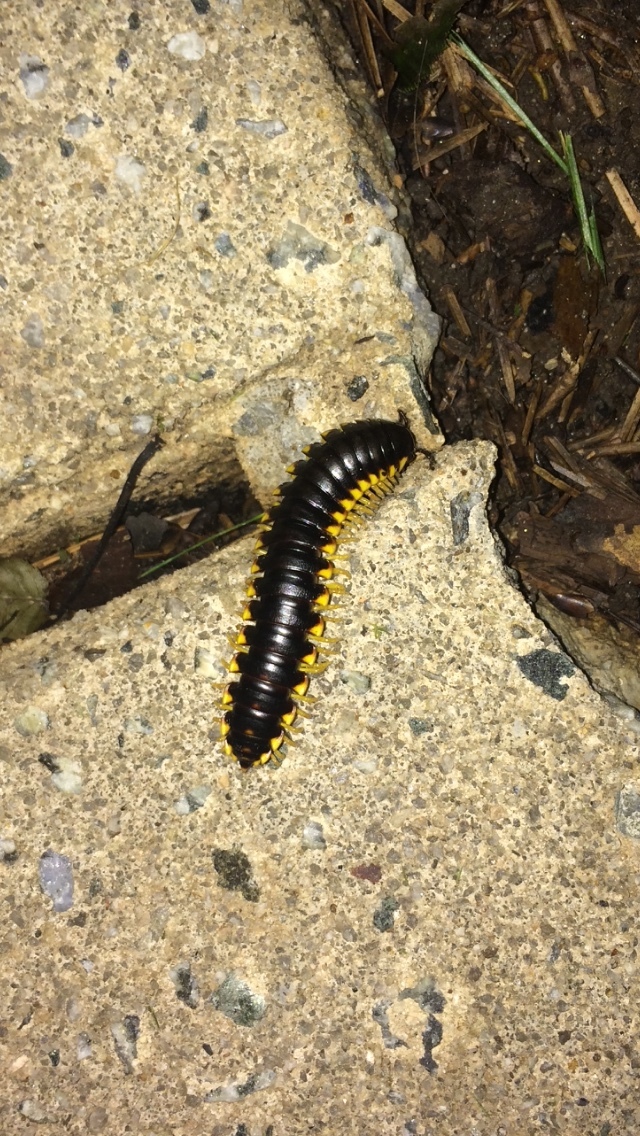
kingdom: Animalia
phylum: Arthropoda
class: Diplopoda
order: Polydesmida
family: Xystodesmidae
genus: Apheloria
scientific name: Apheloria tigana
